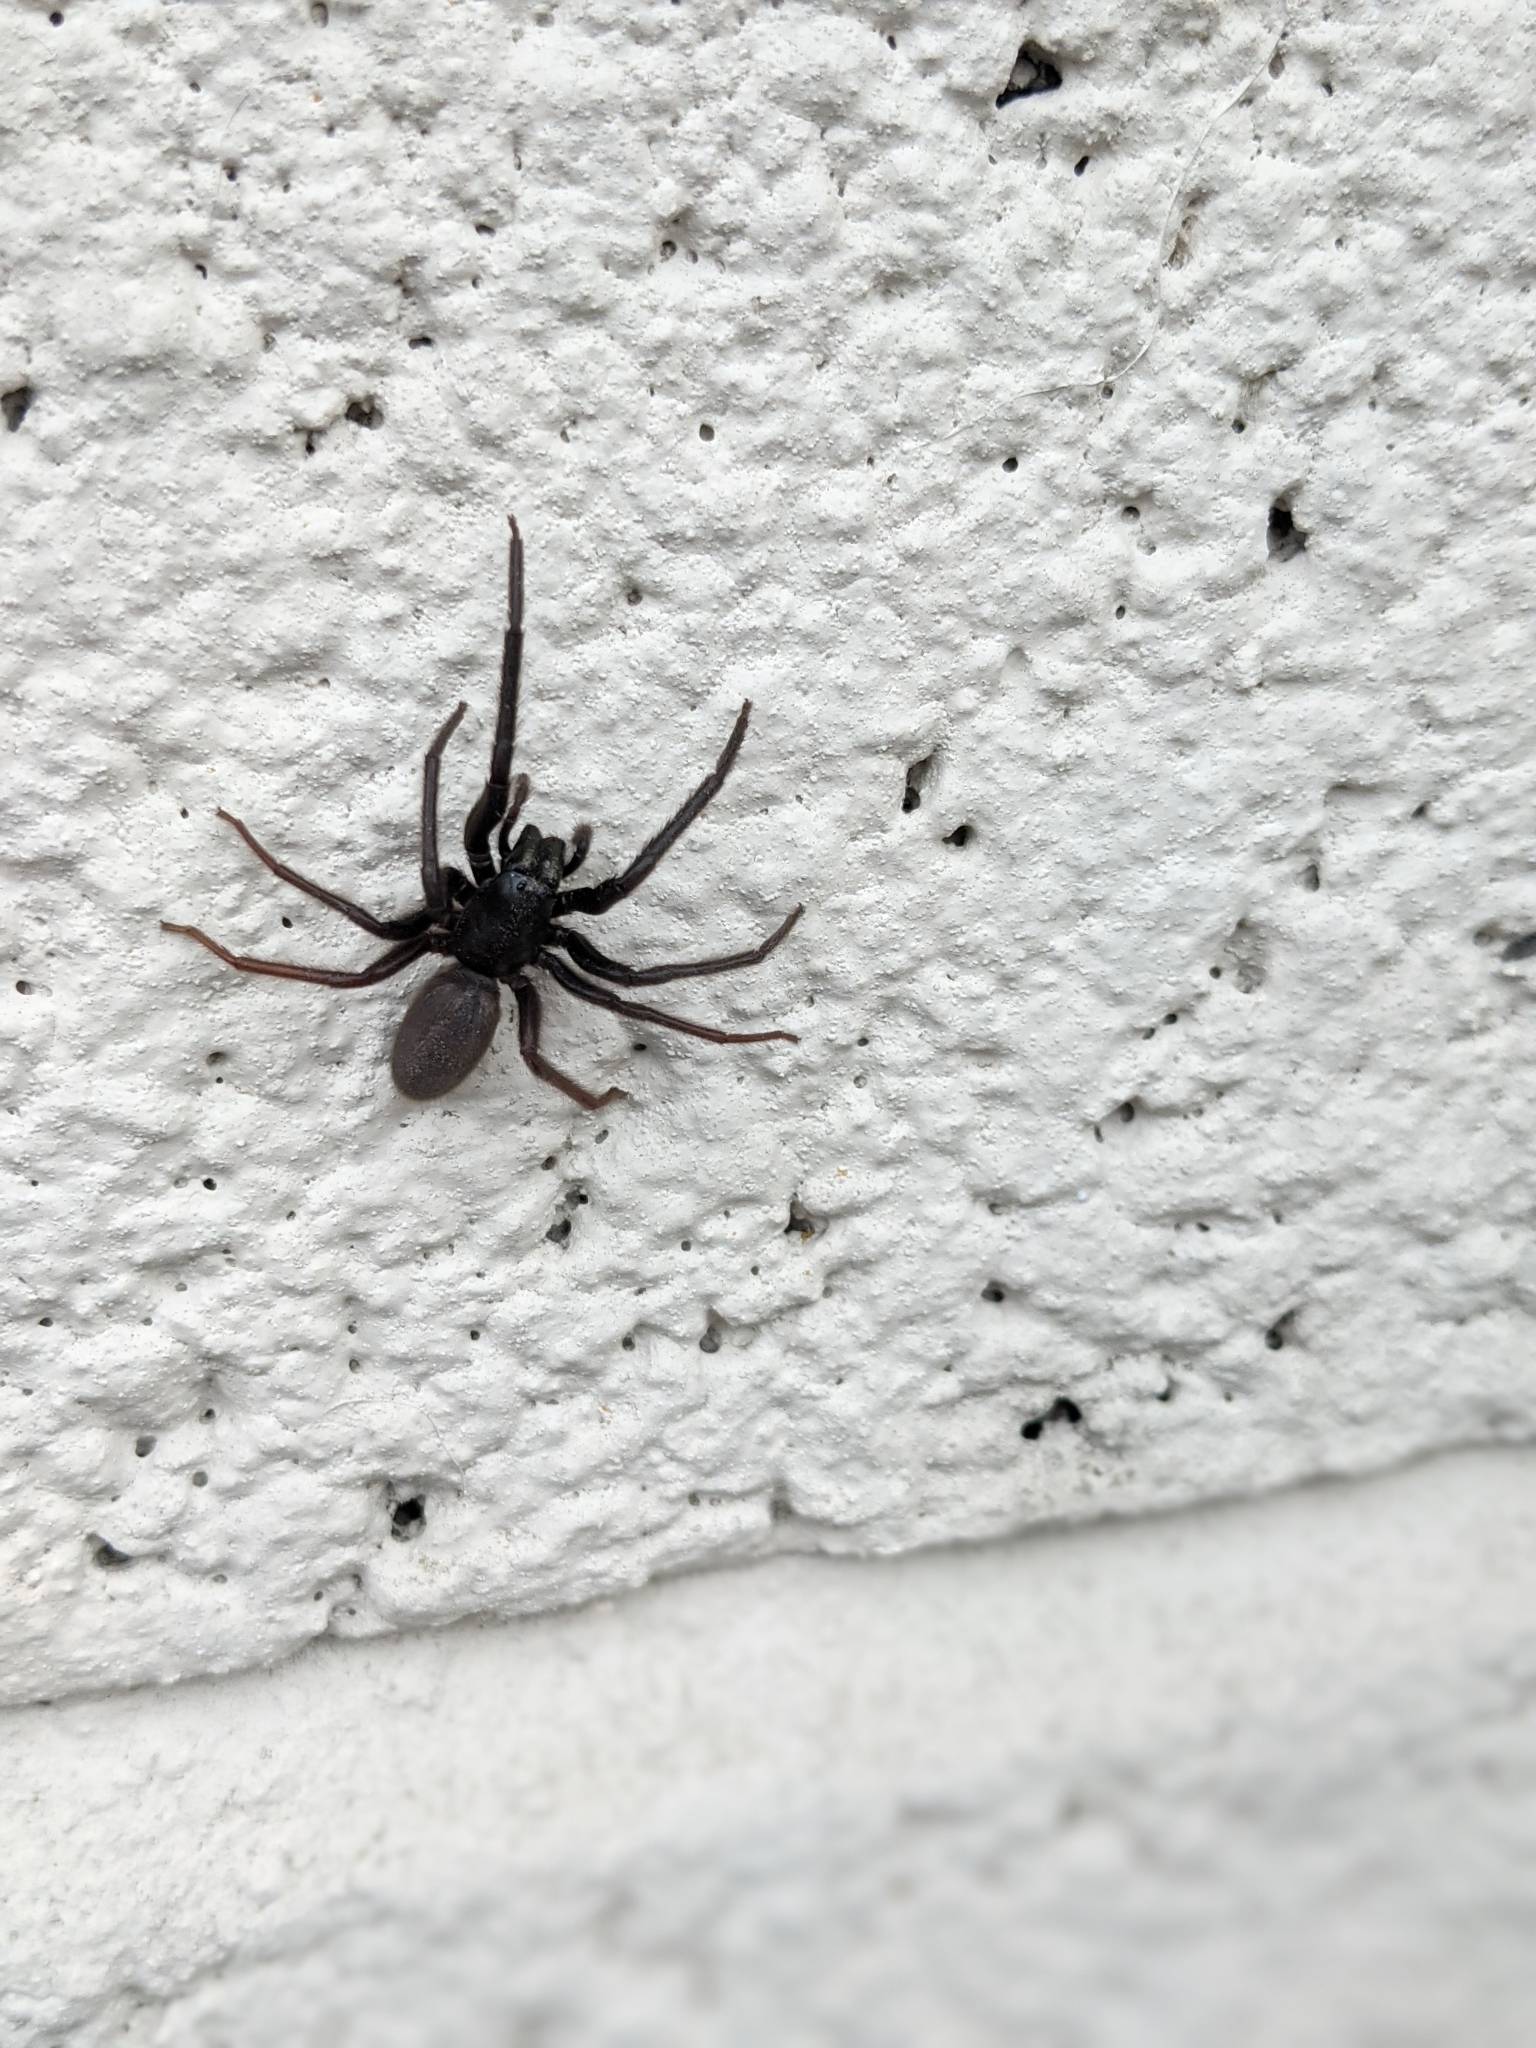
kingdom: Animalia
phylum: Arthropoda
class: Arachnida
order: Araneae
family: Segestriidae
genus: Segestria
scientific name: Segestria florentina
